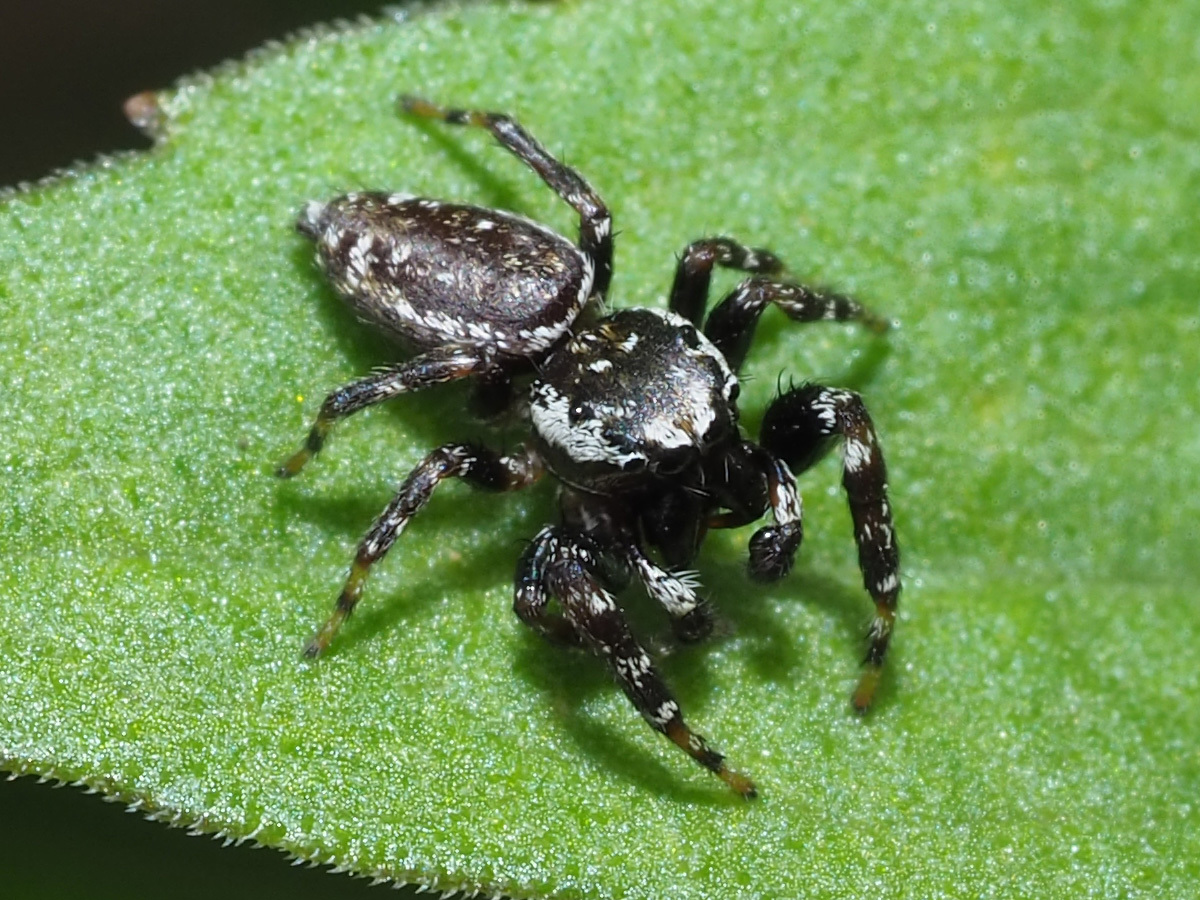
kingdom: Animalia
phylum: Arthropoda
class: Arachnida
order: Araneae
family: Salticidae
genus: Pelegrina
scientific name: Pelegrina galathea
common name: Jumping spiders
